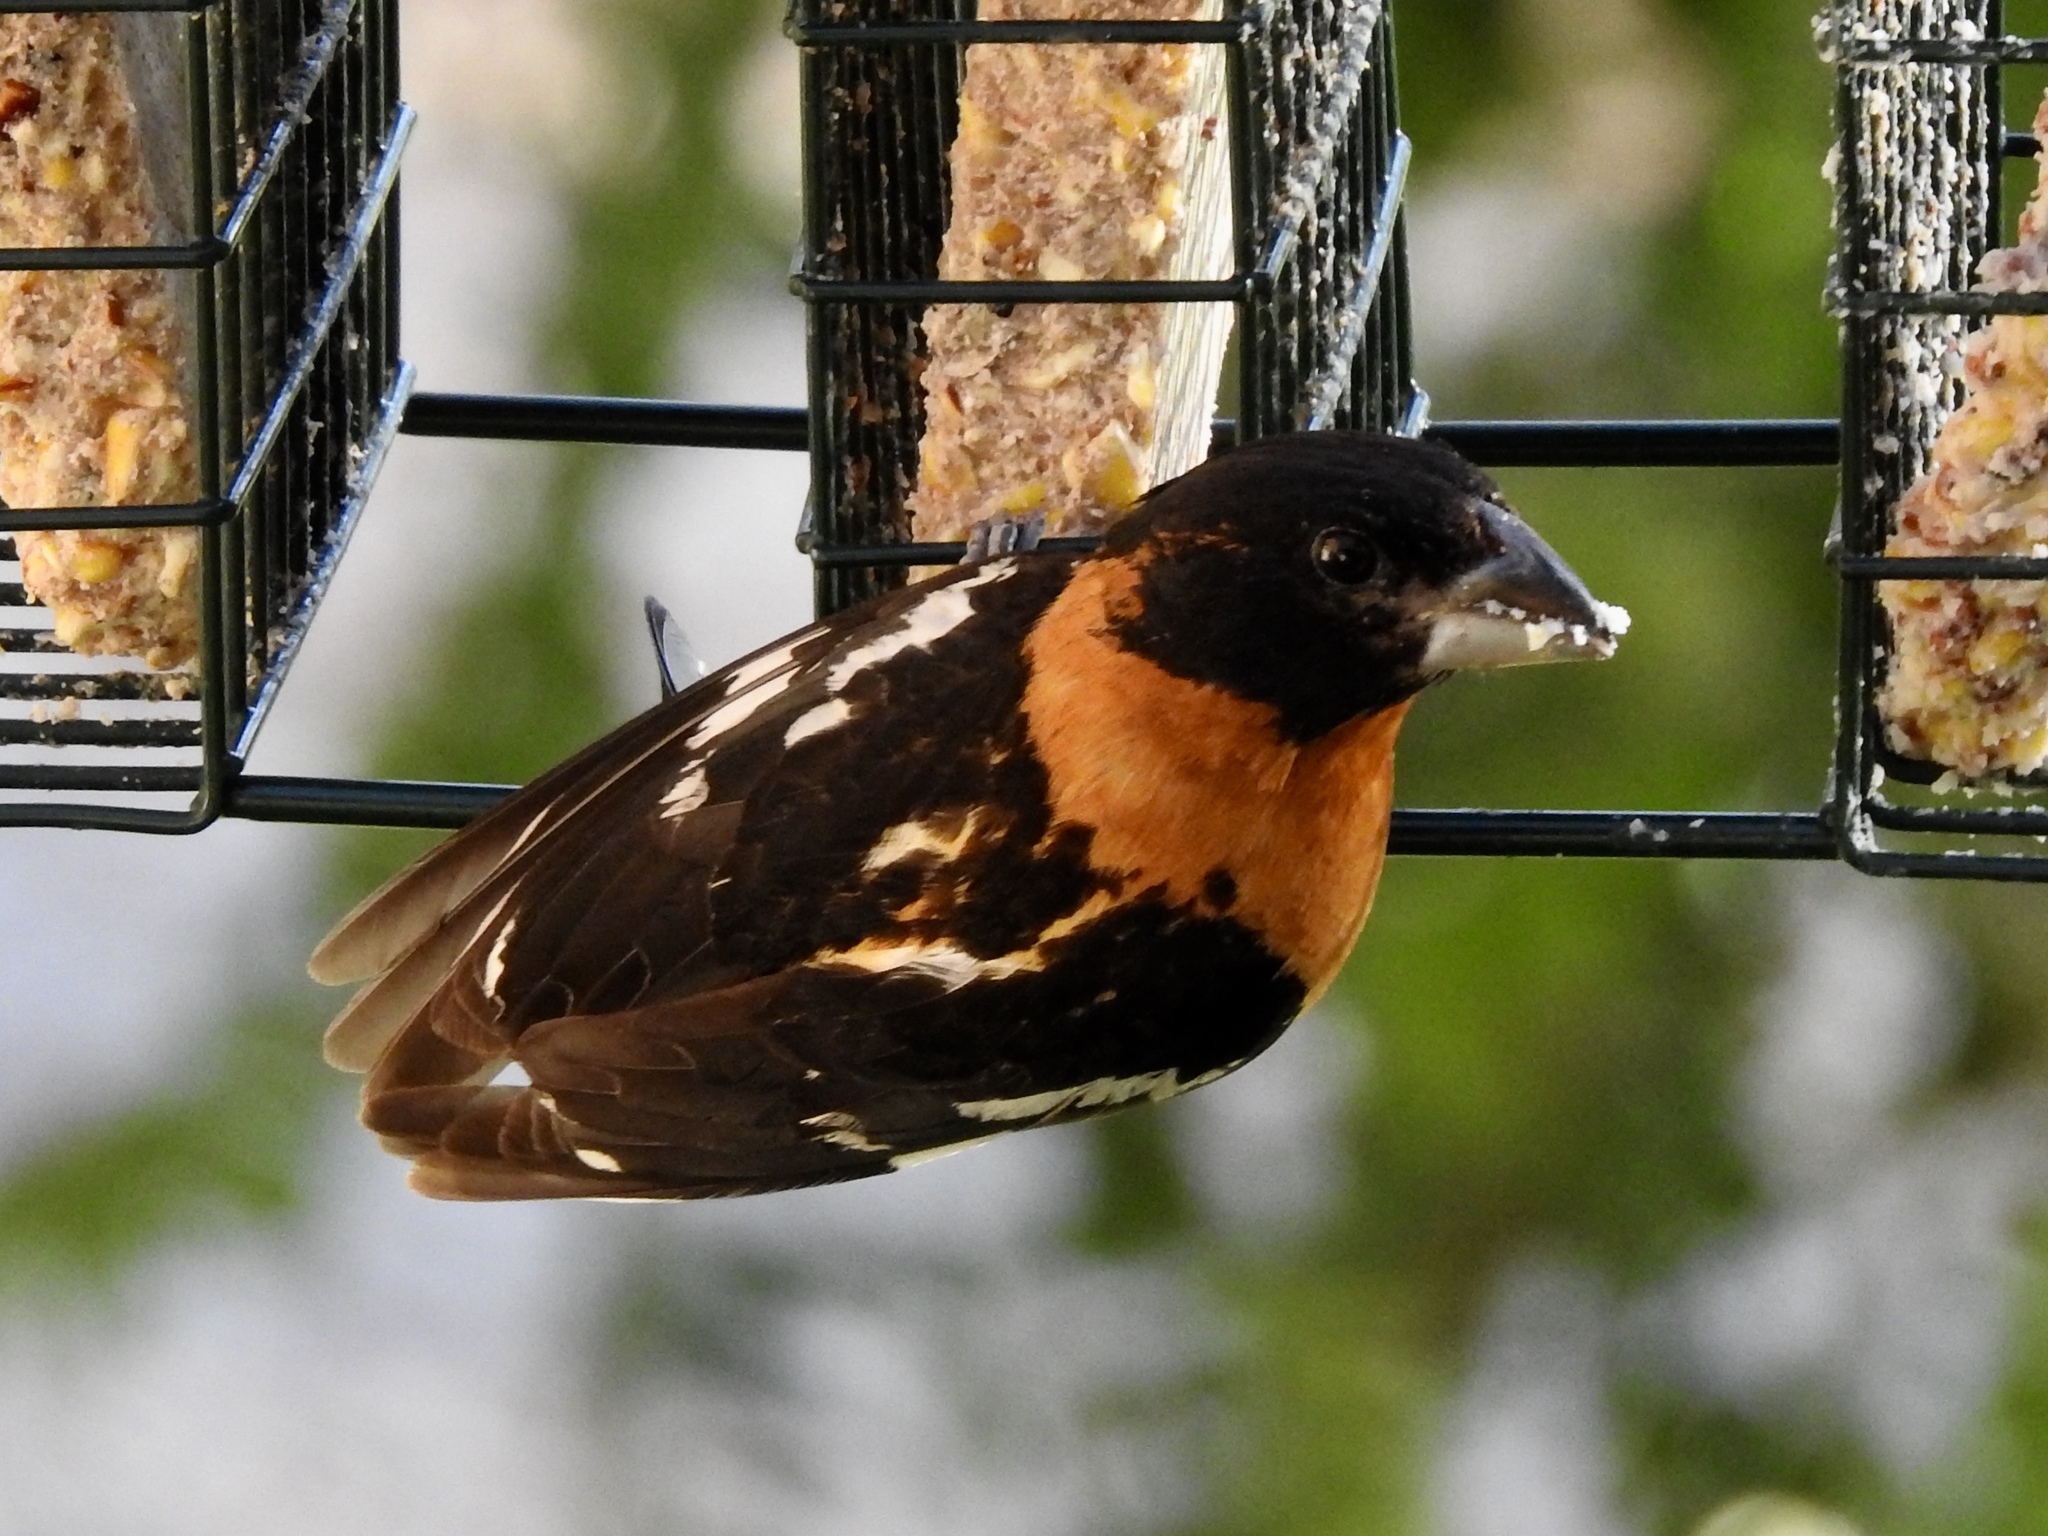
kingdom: Animalia
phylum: Chordata
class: Aves
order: Passeriformes
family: Cardinalidae
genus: Pheucticus
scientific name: Pheucticus melanocephalus
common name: Black-headed grosbeak
